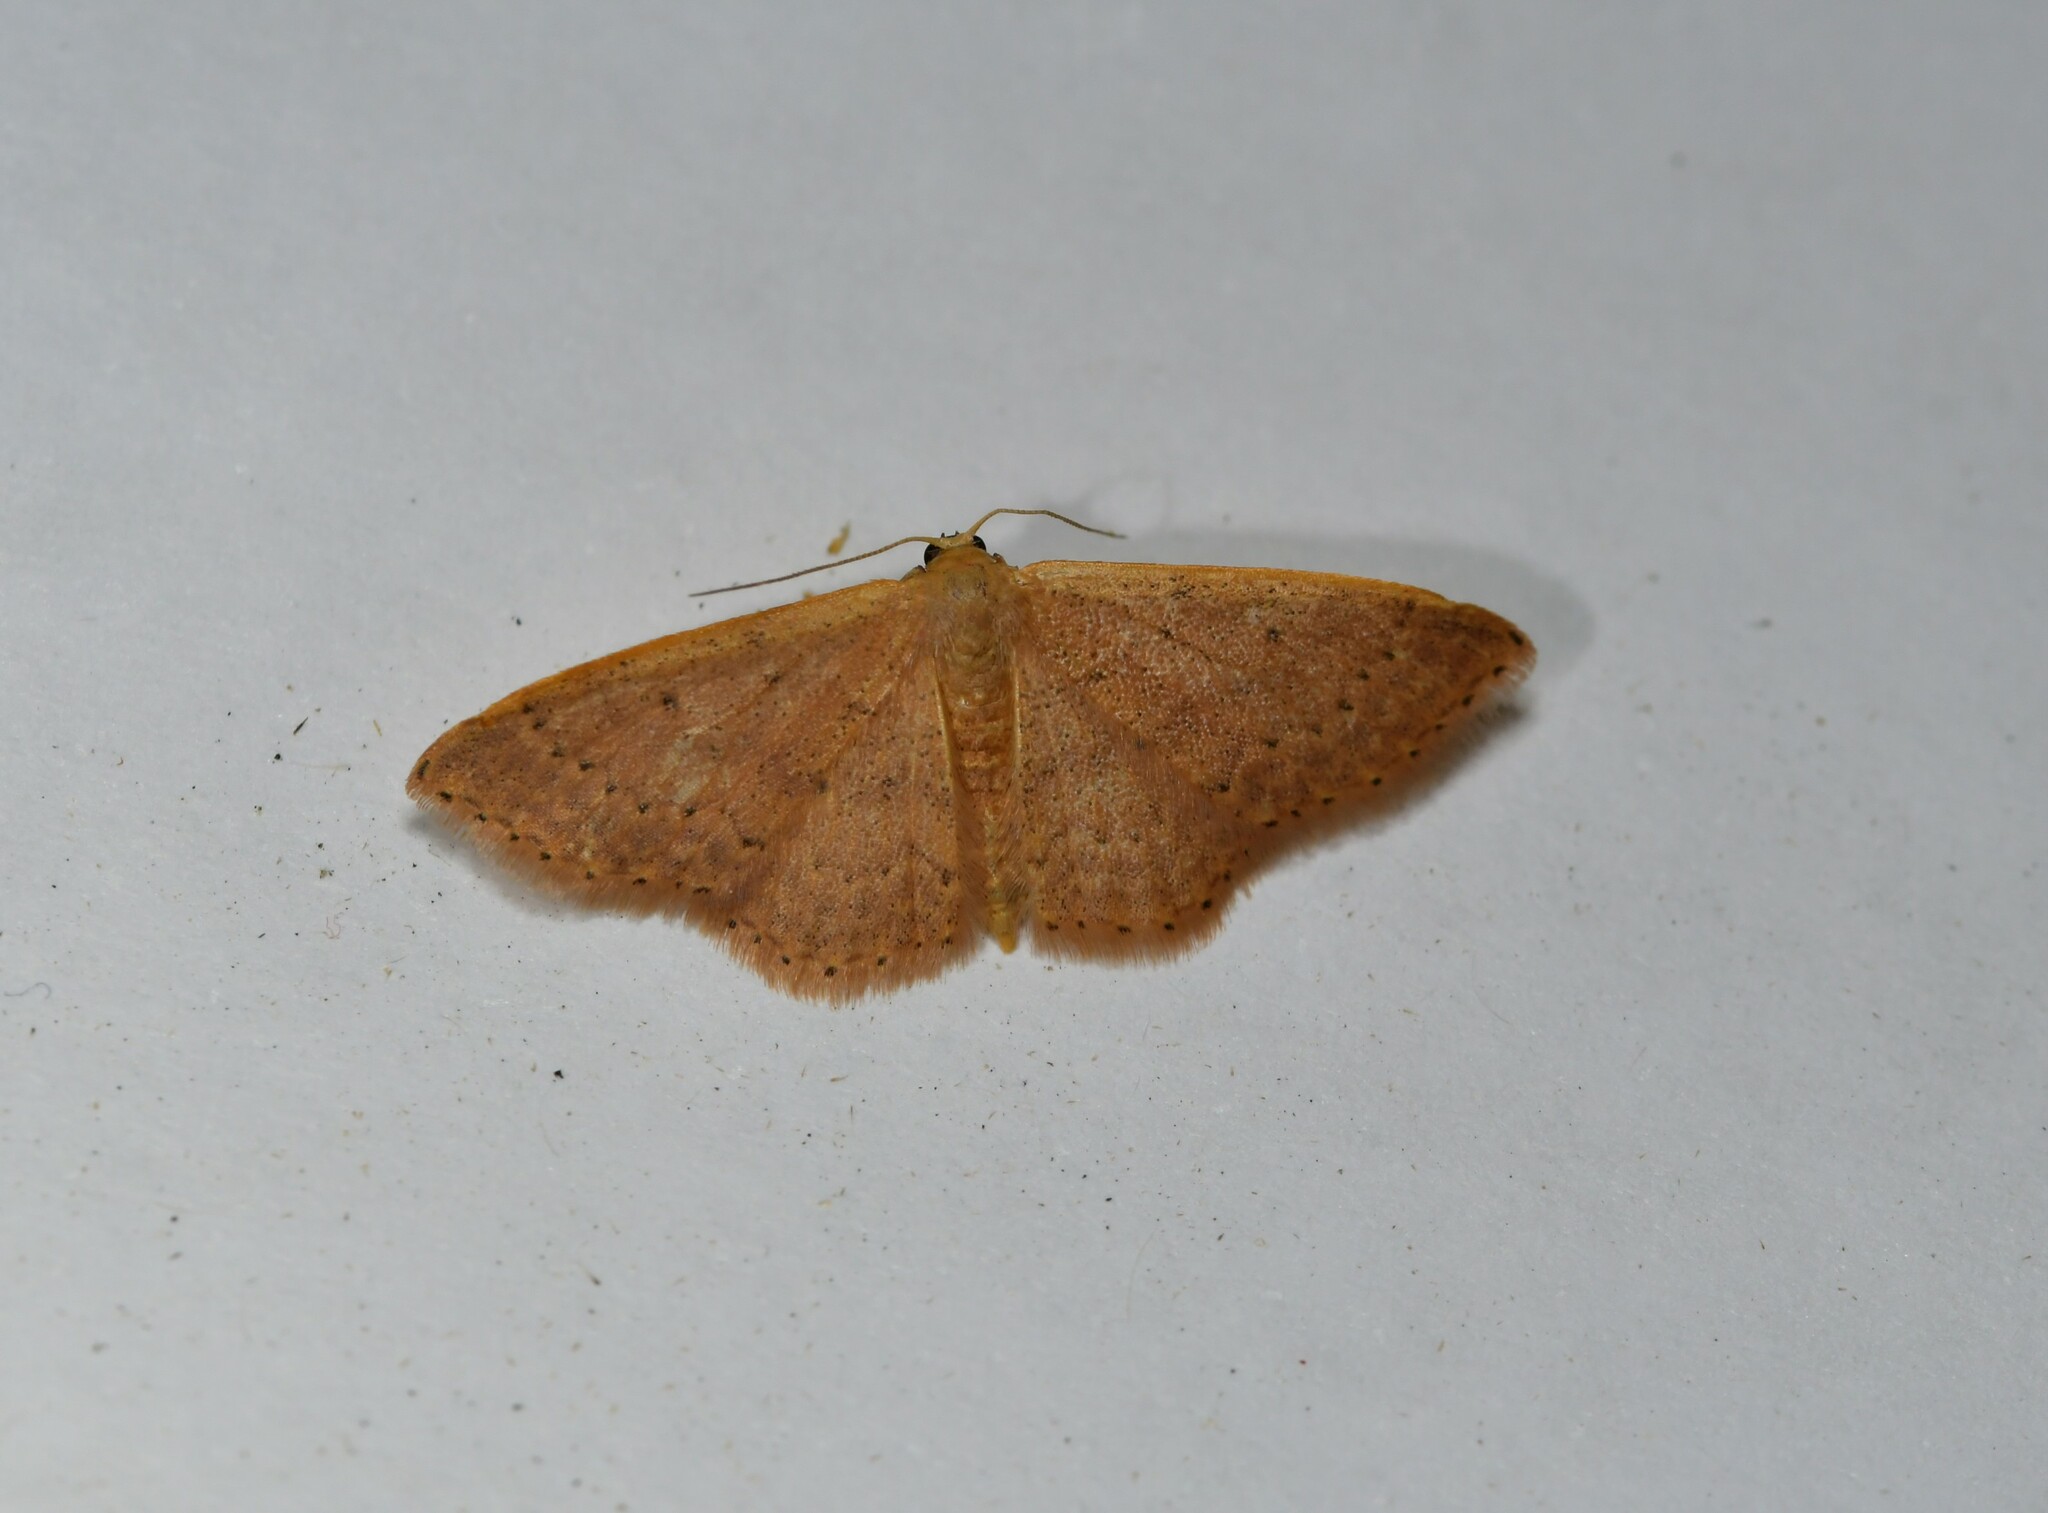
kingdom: Animalia
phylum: Arthropoda
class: Insecta
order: Lepidoptera
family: Geometridae
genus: Idaea
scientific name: Idaea eugeniata
